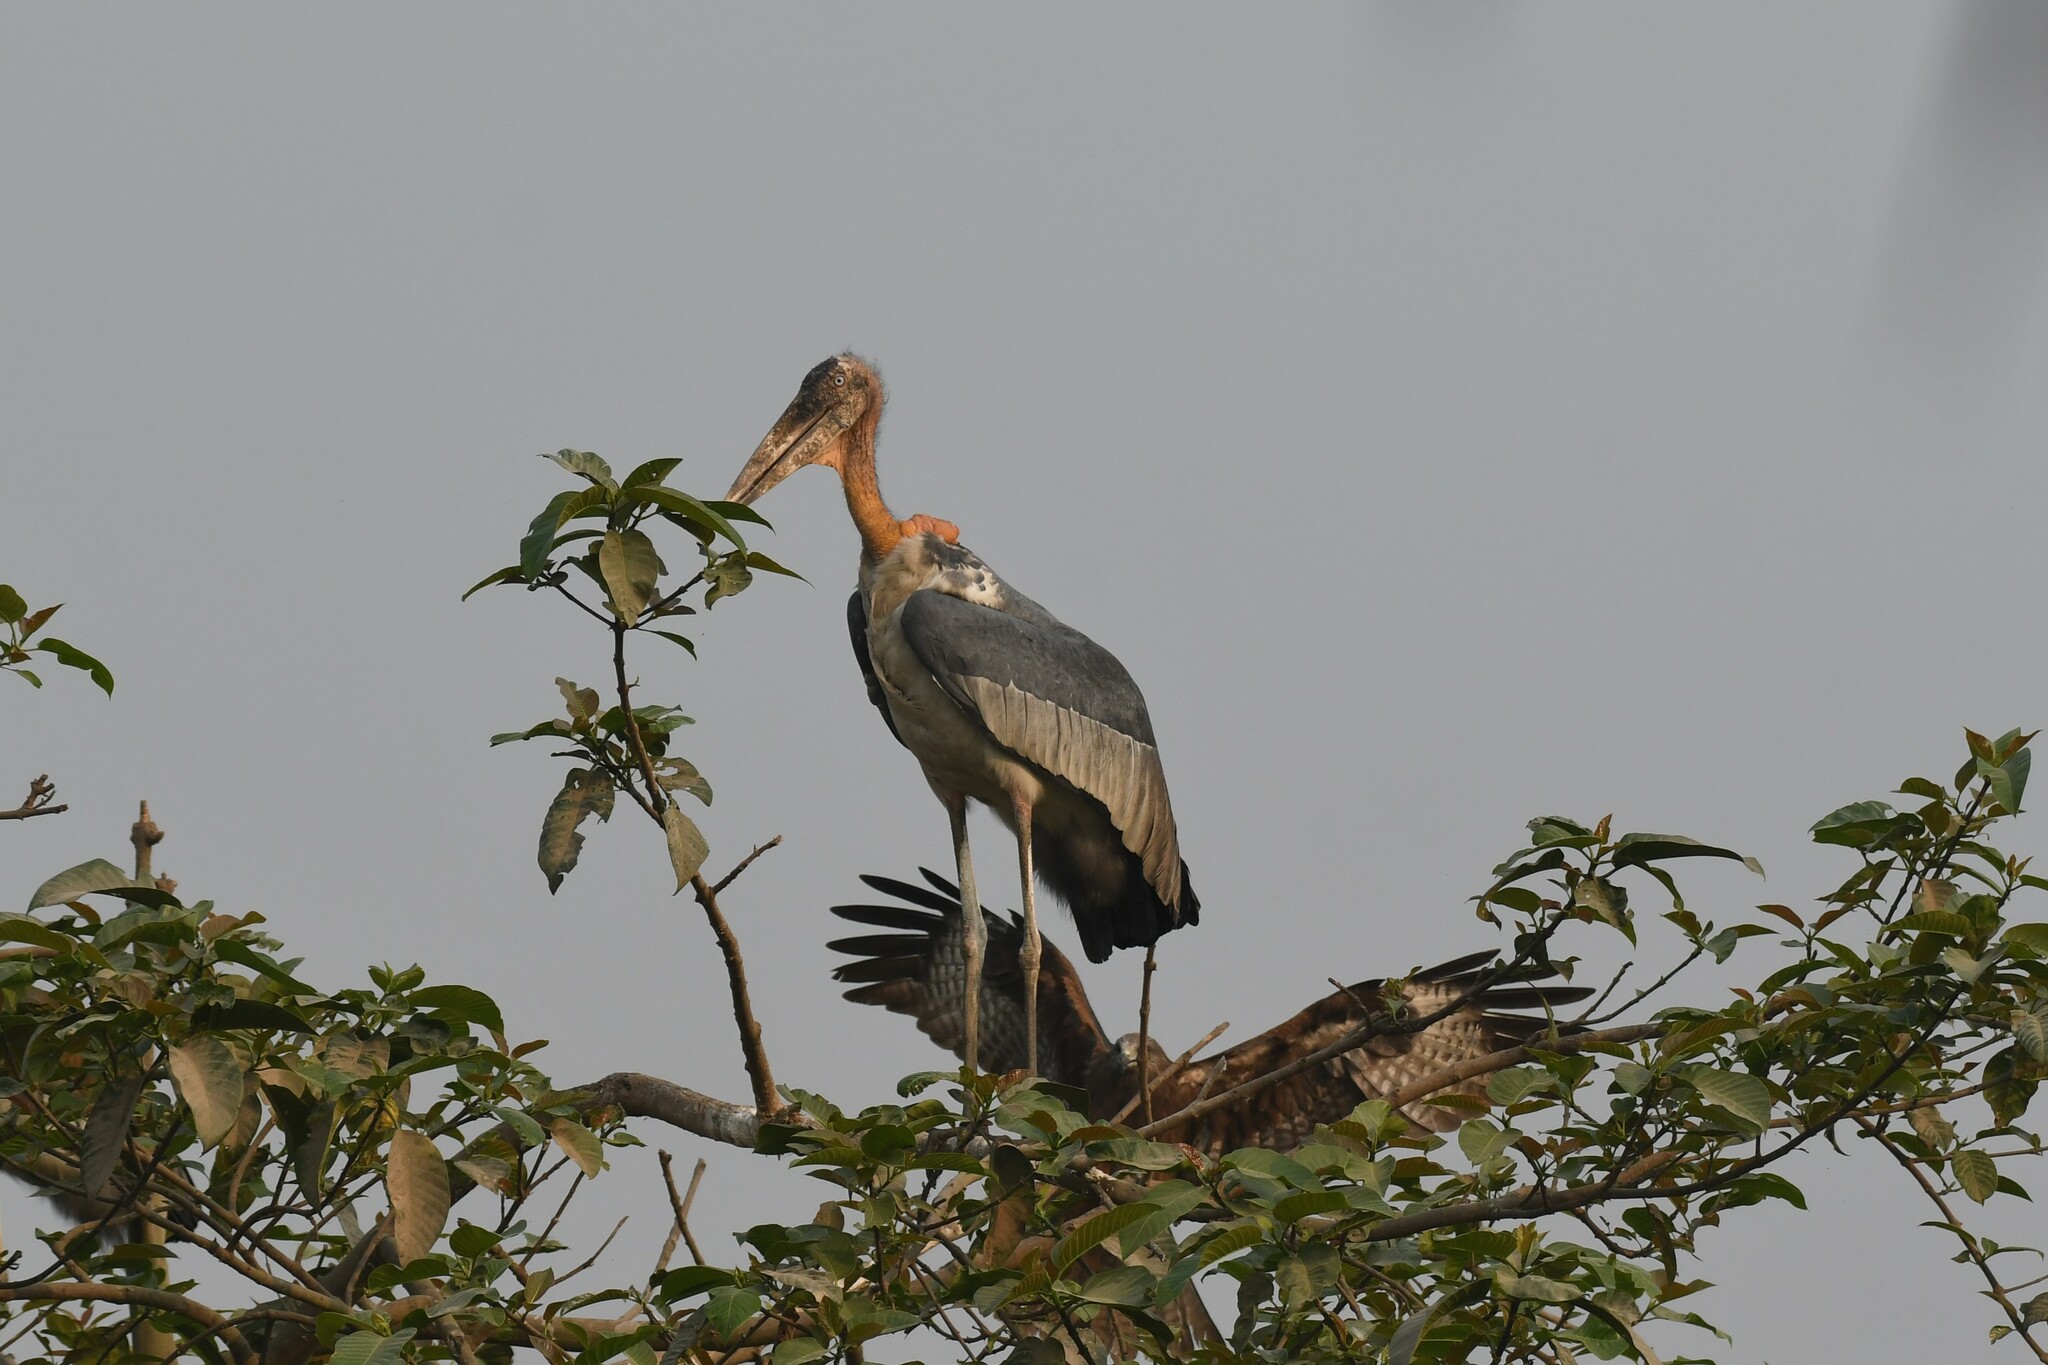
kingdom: Animalia
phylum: Chordata
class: Aves
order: Ciconiiformes
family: Ciconiidae
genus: Leptoptilos
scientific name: Leptoptilos dubius
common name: Greater adjutant
